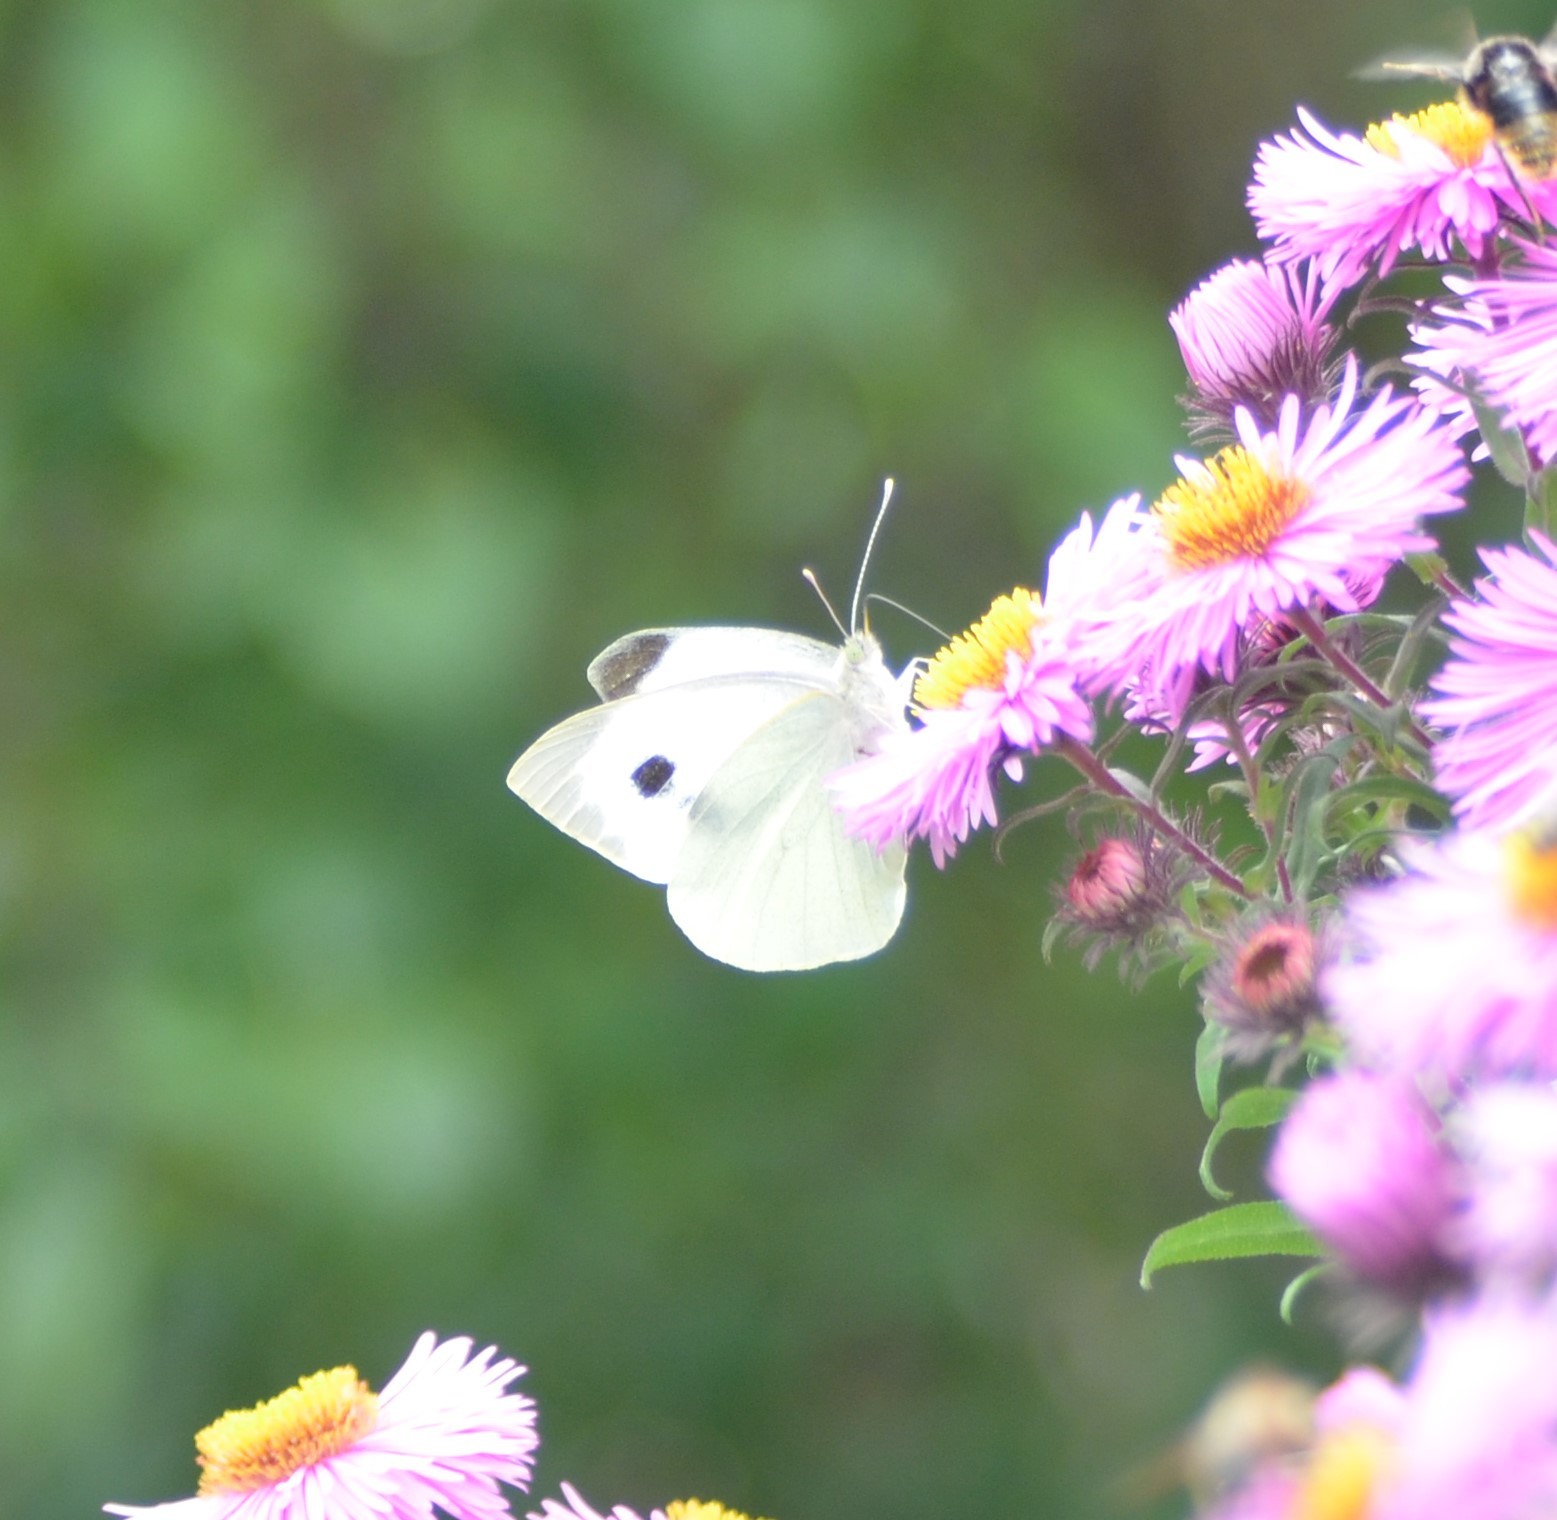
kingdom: Animalia
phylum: Arthropoda
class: Insecta
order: Lepidoptera
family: Pieridae
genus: Pieris
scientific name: Pieris brassicae
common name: Large white
